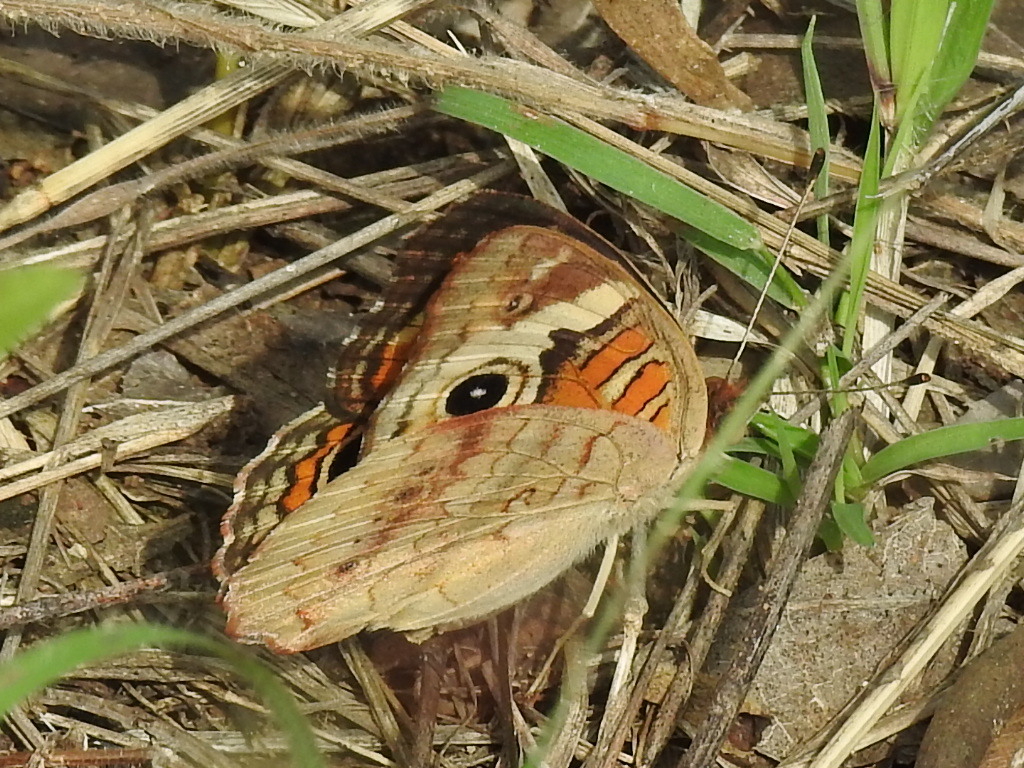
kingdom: Animalia
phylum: Arthropoda
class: Insecta
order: Lepidoptera
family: Nymphalidae
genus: Junonia
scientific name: Junonia coenia
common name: Common buckeye
